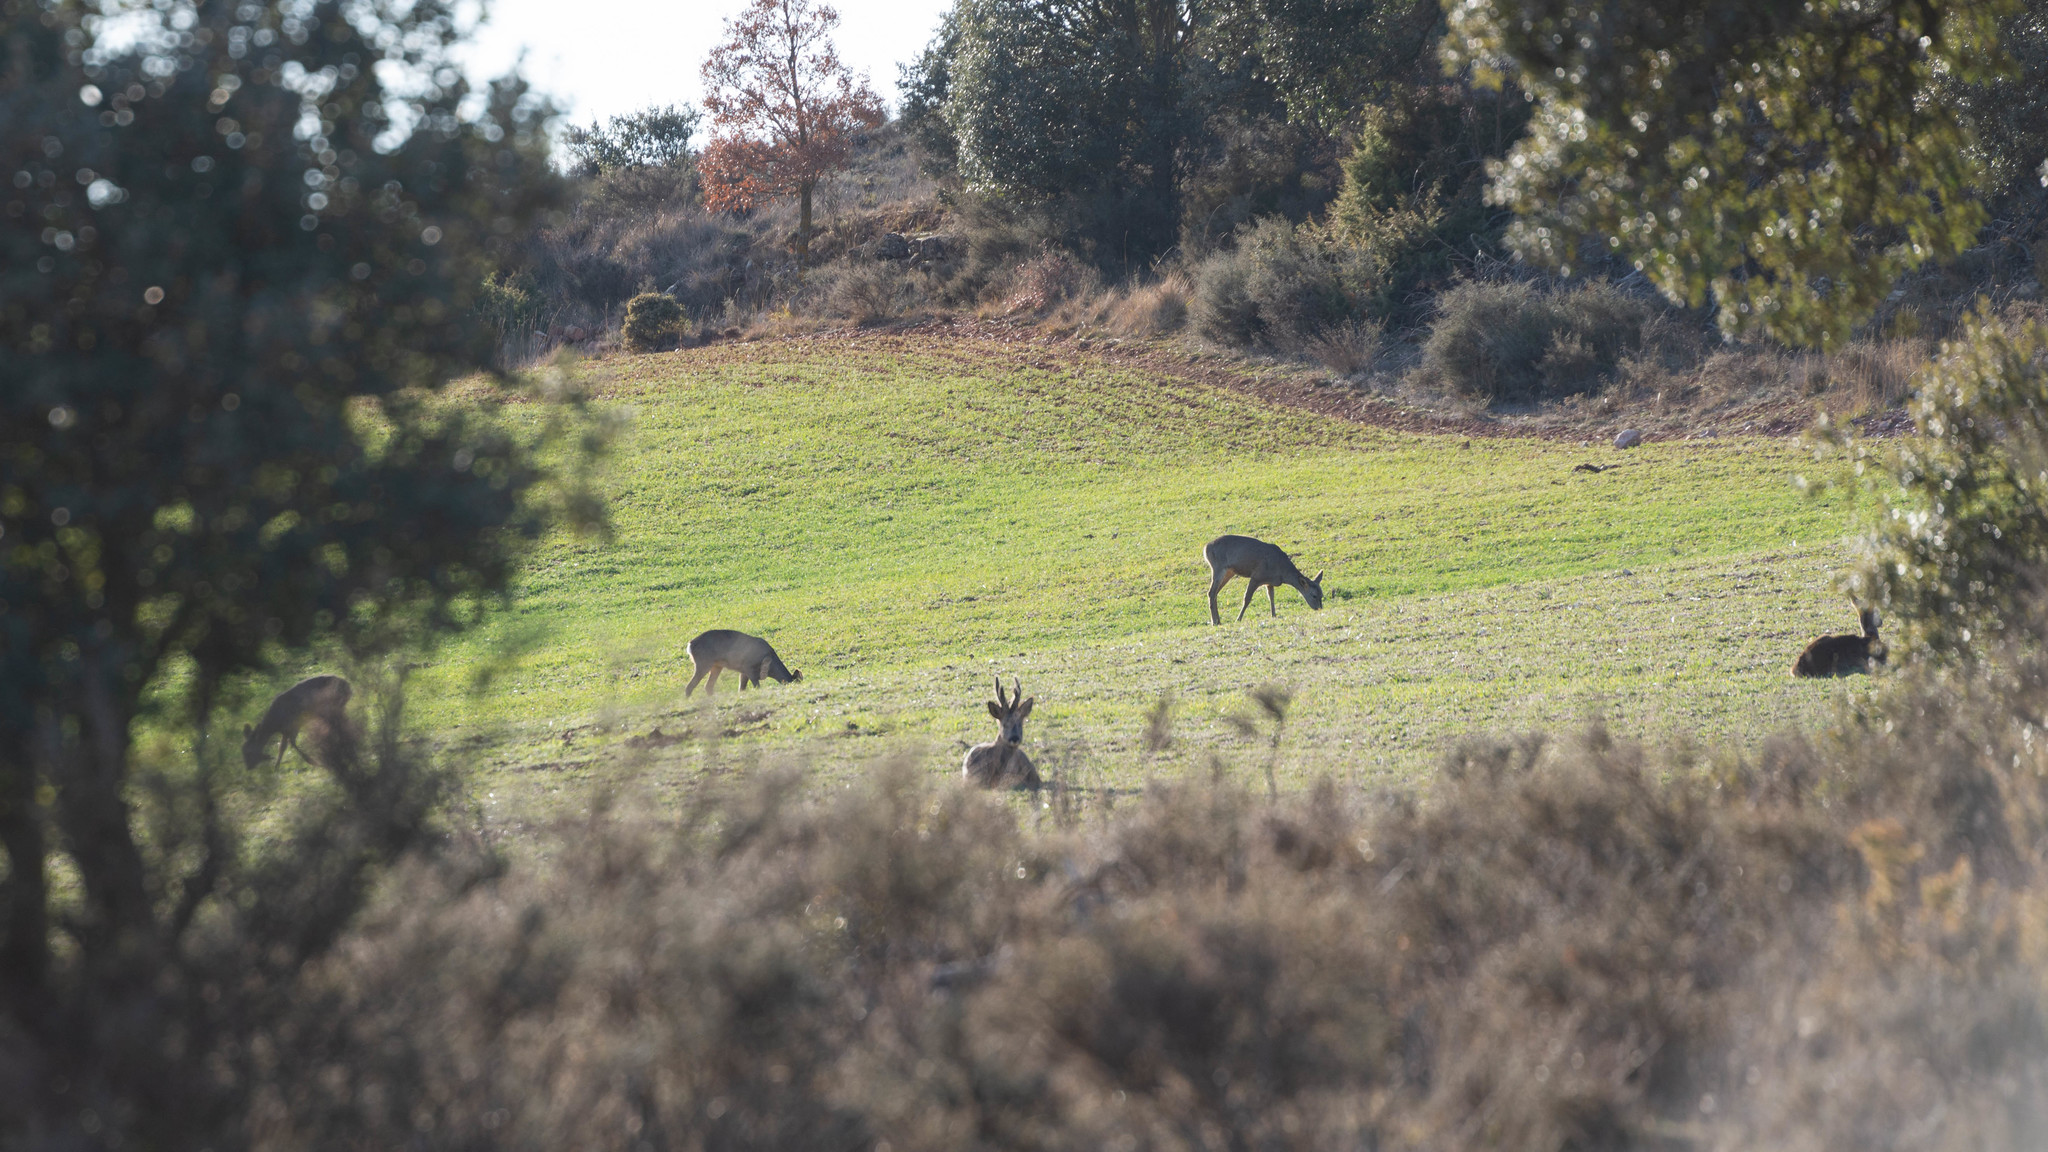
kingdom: Animalia
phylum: Chordata
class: Mammalia
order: Artiodactyla
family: Cervidae
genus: Capreolus
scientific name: Capreolus capreolus
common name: Western roe deer
